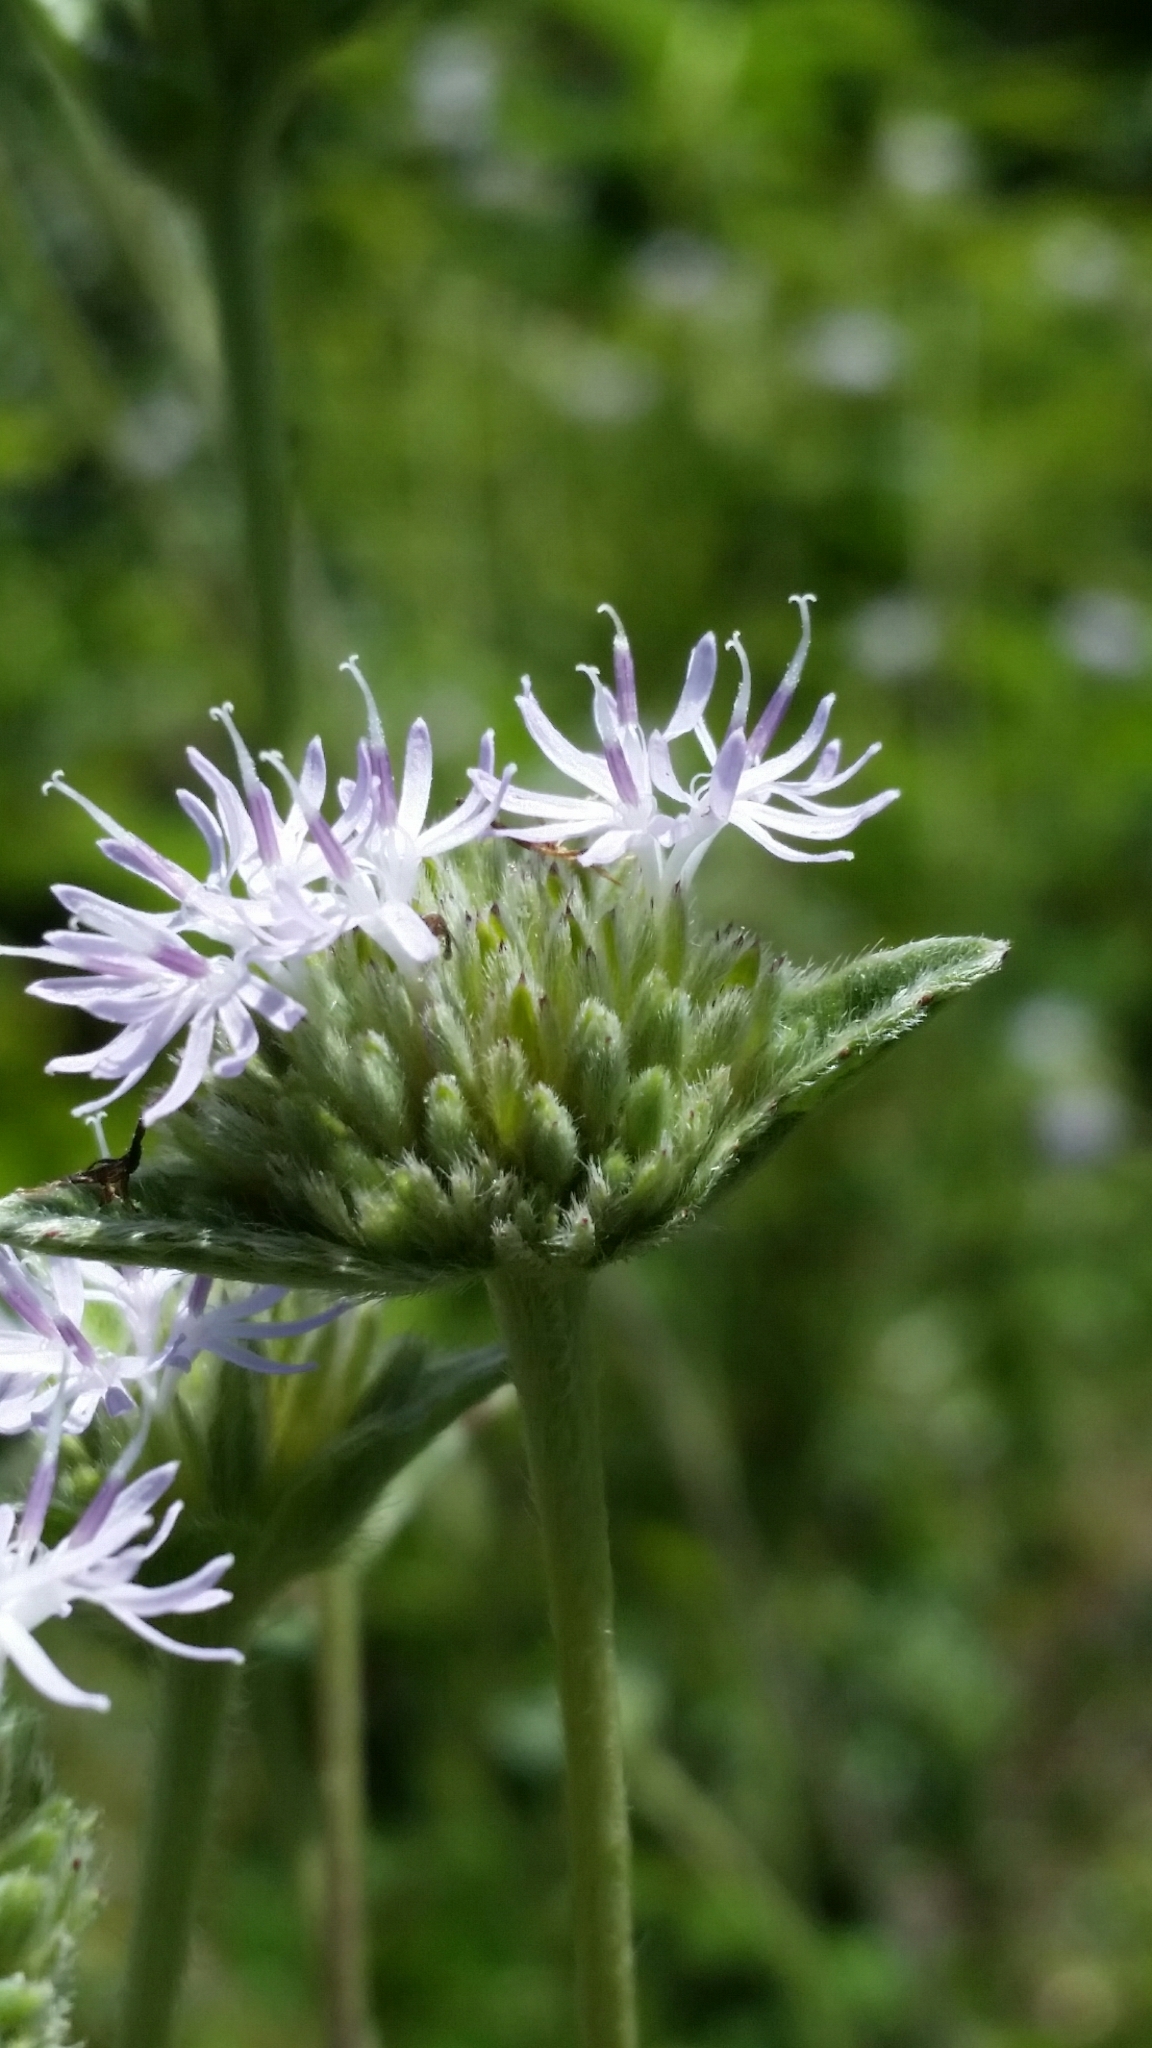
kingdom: Plantae
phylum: Tracheophyta
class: Magnoliopsida
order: Asterales
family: Asteraceae
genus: Elephantopus
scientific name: Elephantopus elatus
